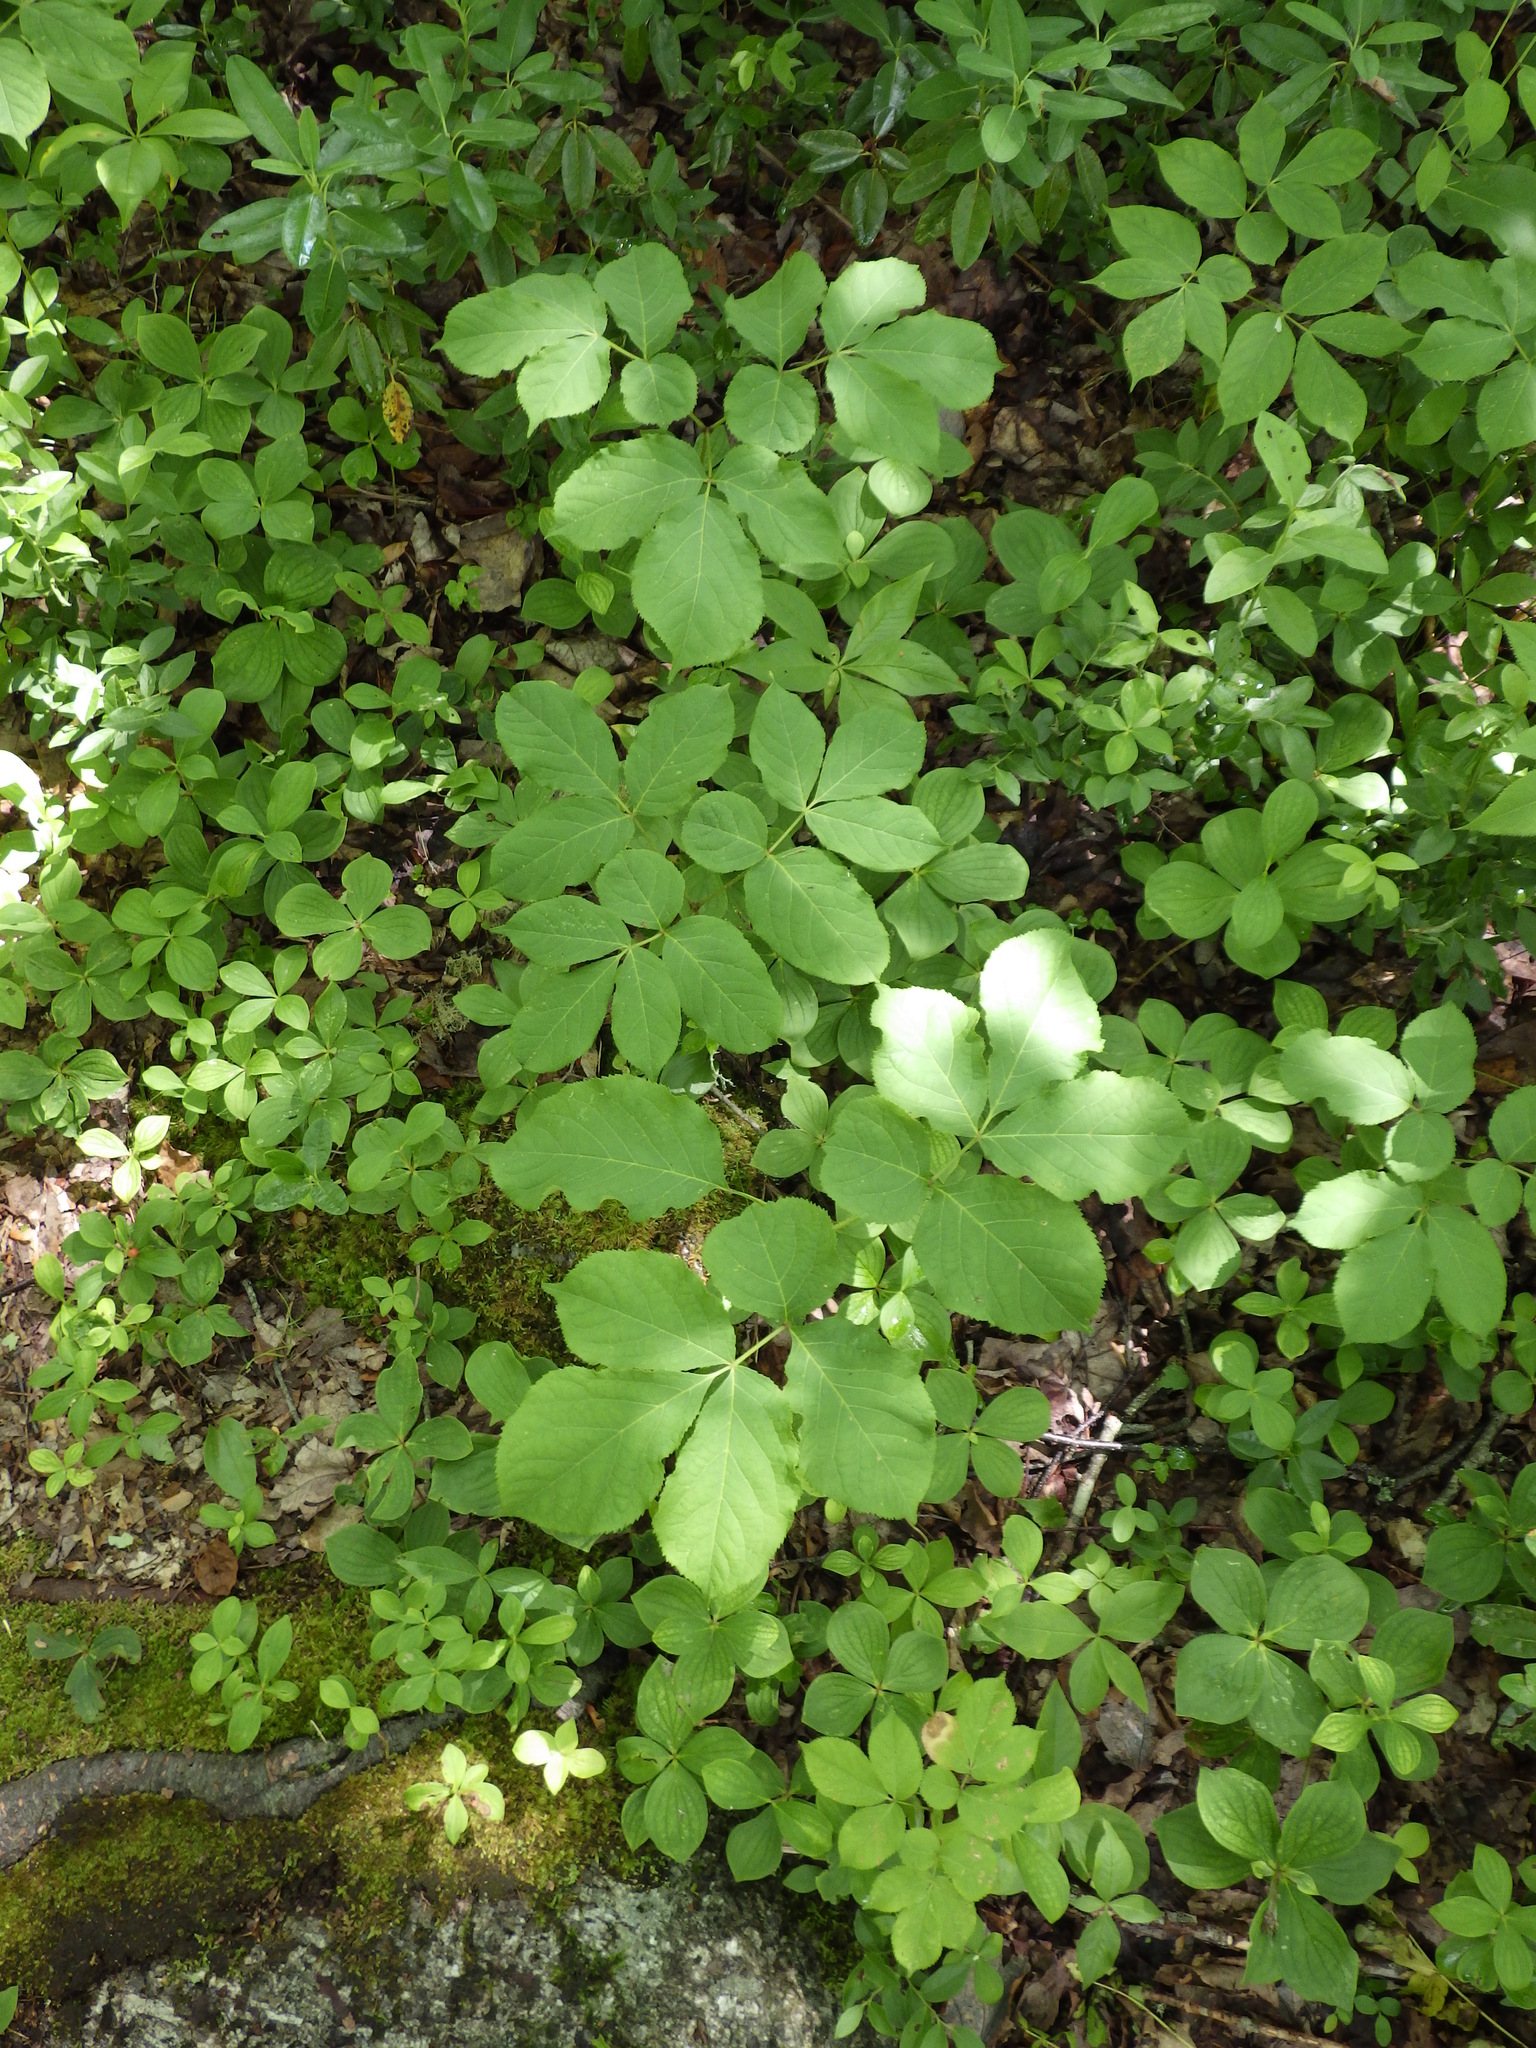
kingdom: Plantae
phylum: Tracheophyta
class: Magnoliopsida
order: Apiales
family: Araliaceae
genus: Aralia
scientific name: Aralia nudicaulis
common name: Wild sarsaparilla
